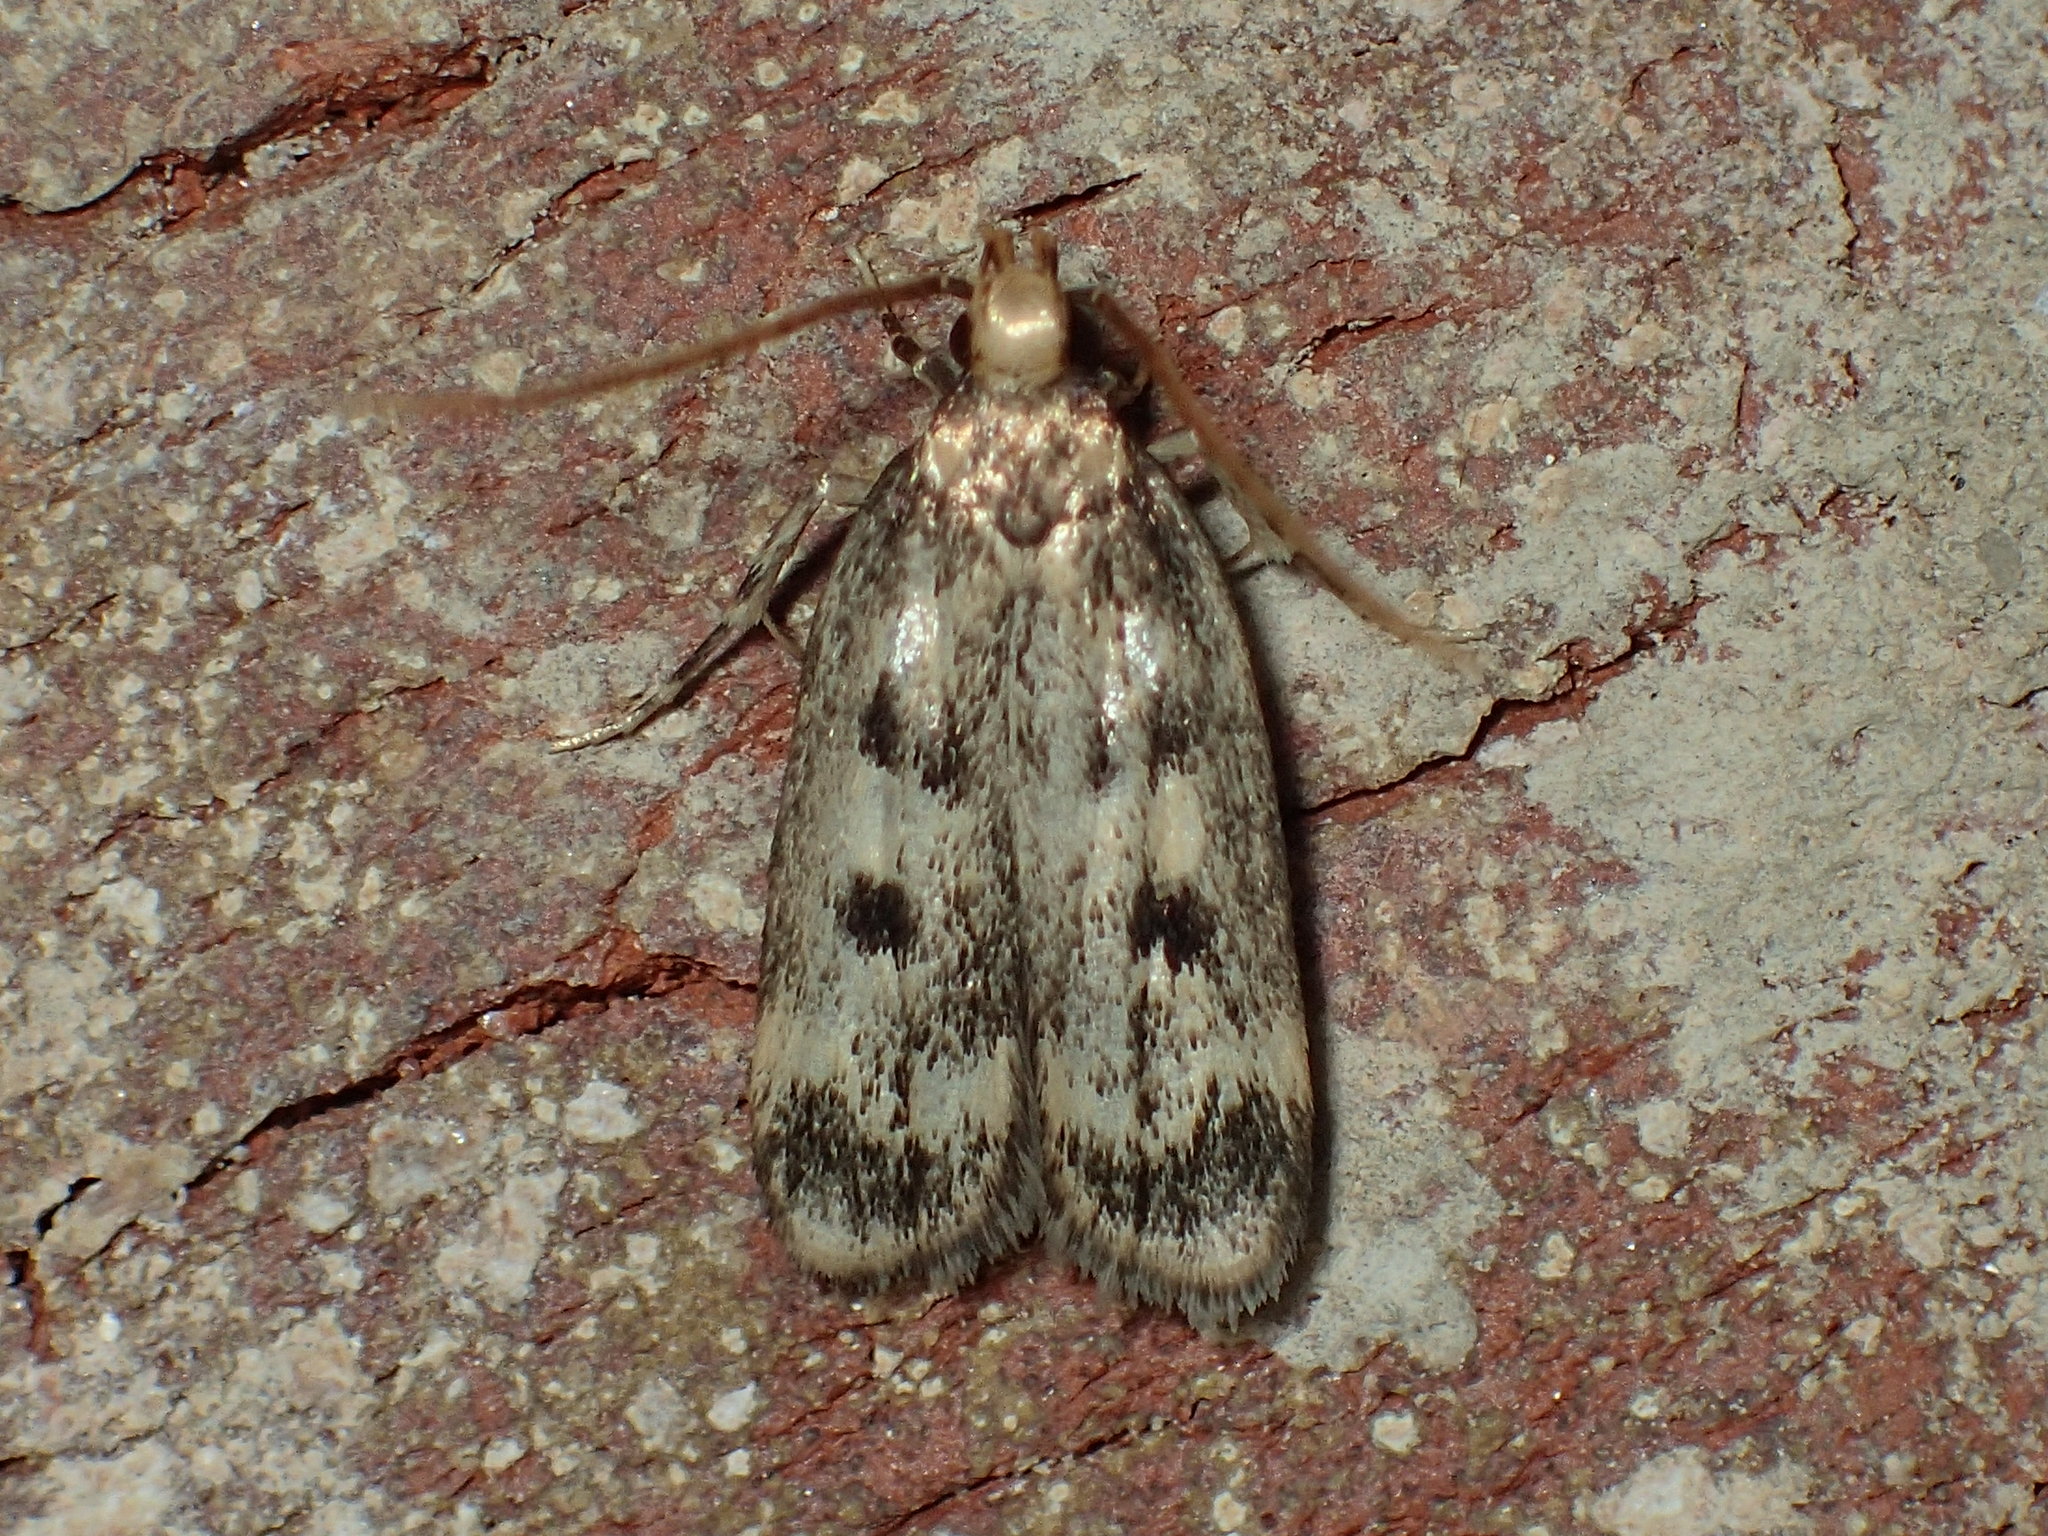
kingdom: Animalia
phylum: Arthropoda
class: Insecta
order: Lepidoptera
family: Lecithoceridae
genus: Martyringa
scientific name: Martyringa latipennis
